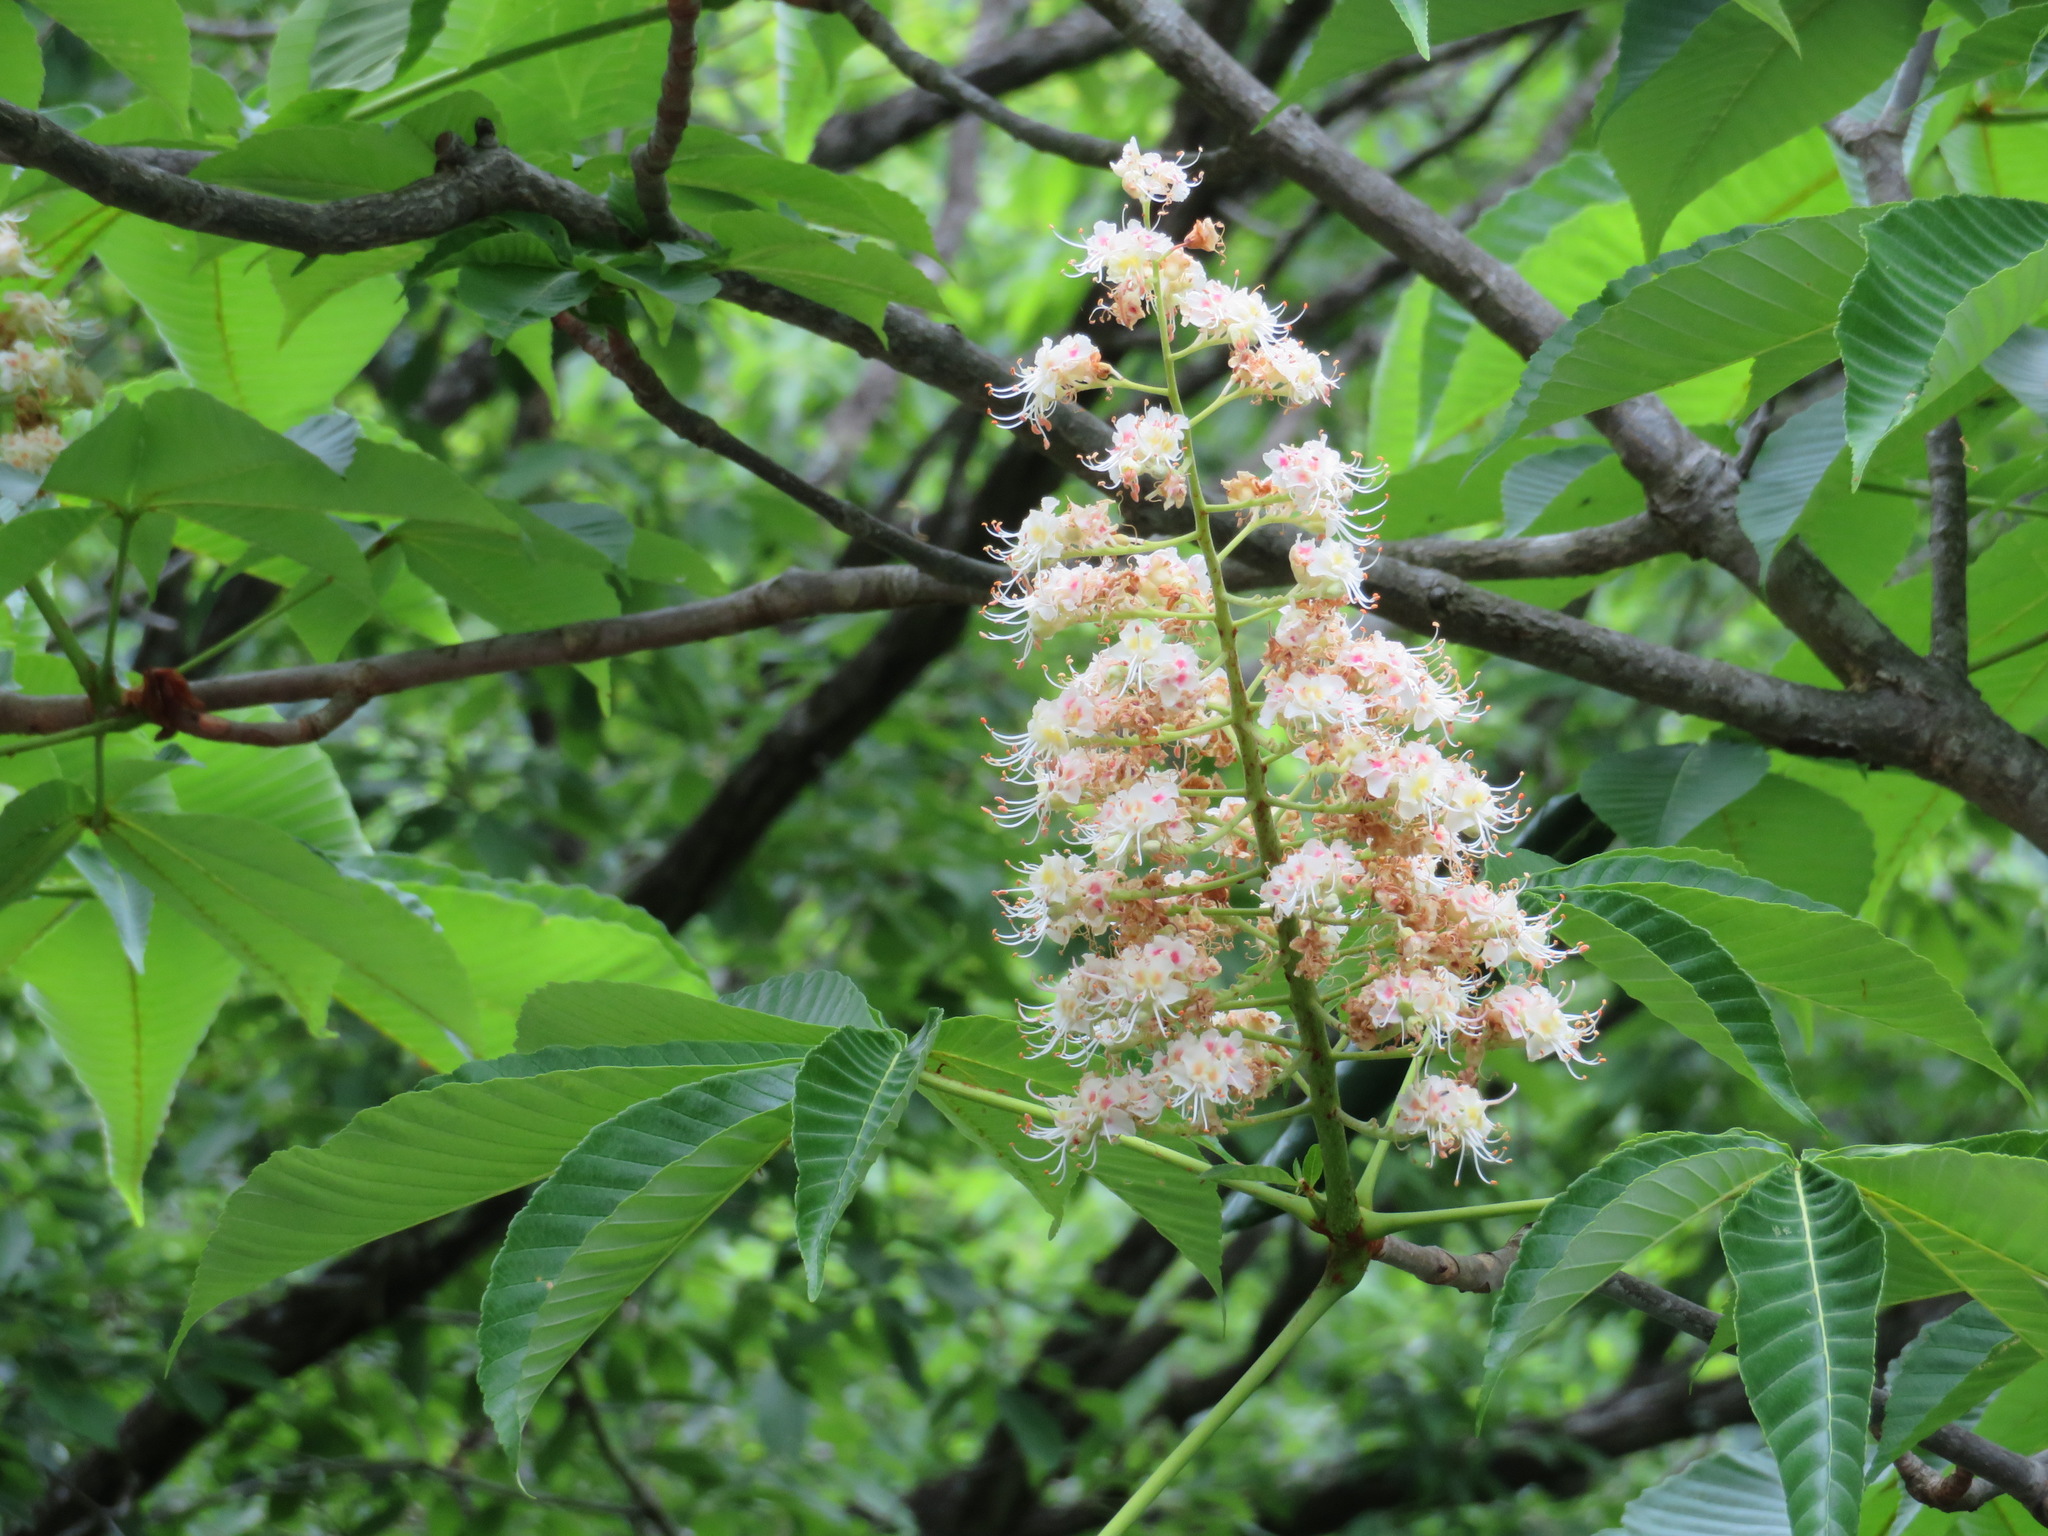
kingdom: Plantae
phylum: Tracheophyta
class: Magnoliopsida
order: Sapindales
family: Sapindaceae
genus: Aesculus
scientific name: Aesculus turbinata
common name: Japanese horse-chestnut
